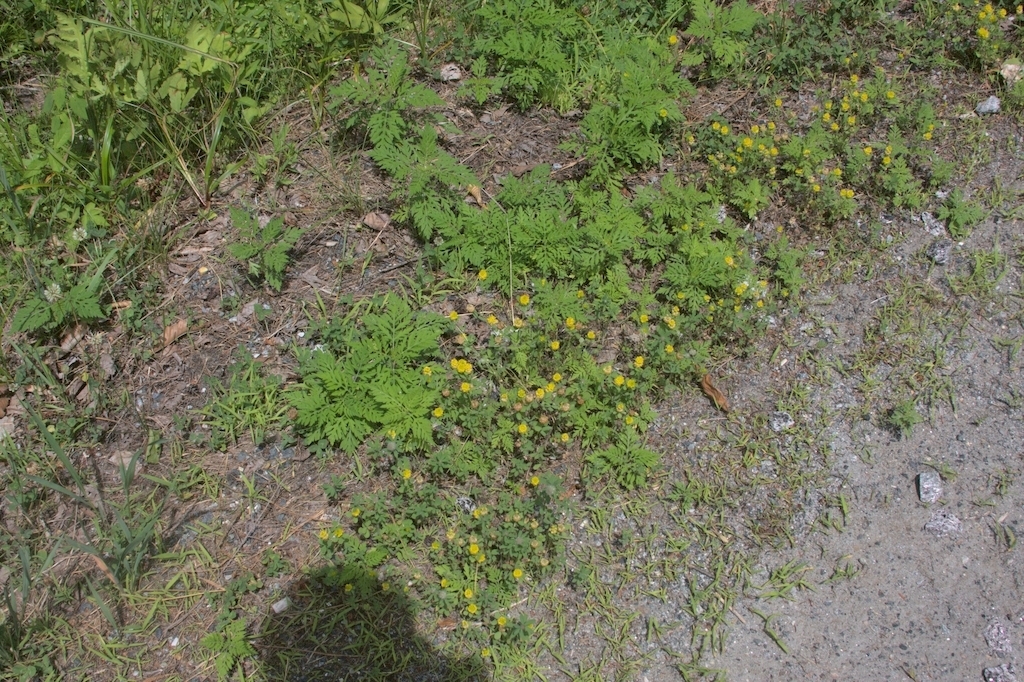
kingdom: Plantae
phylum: Tracheophyta
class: Magnoliopsida
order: Asterales
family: Asteraceae
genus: Ambrosia
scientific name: Ambrosia artemisiifolia
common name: Annual ragweed
